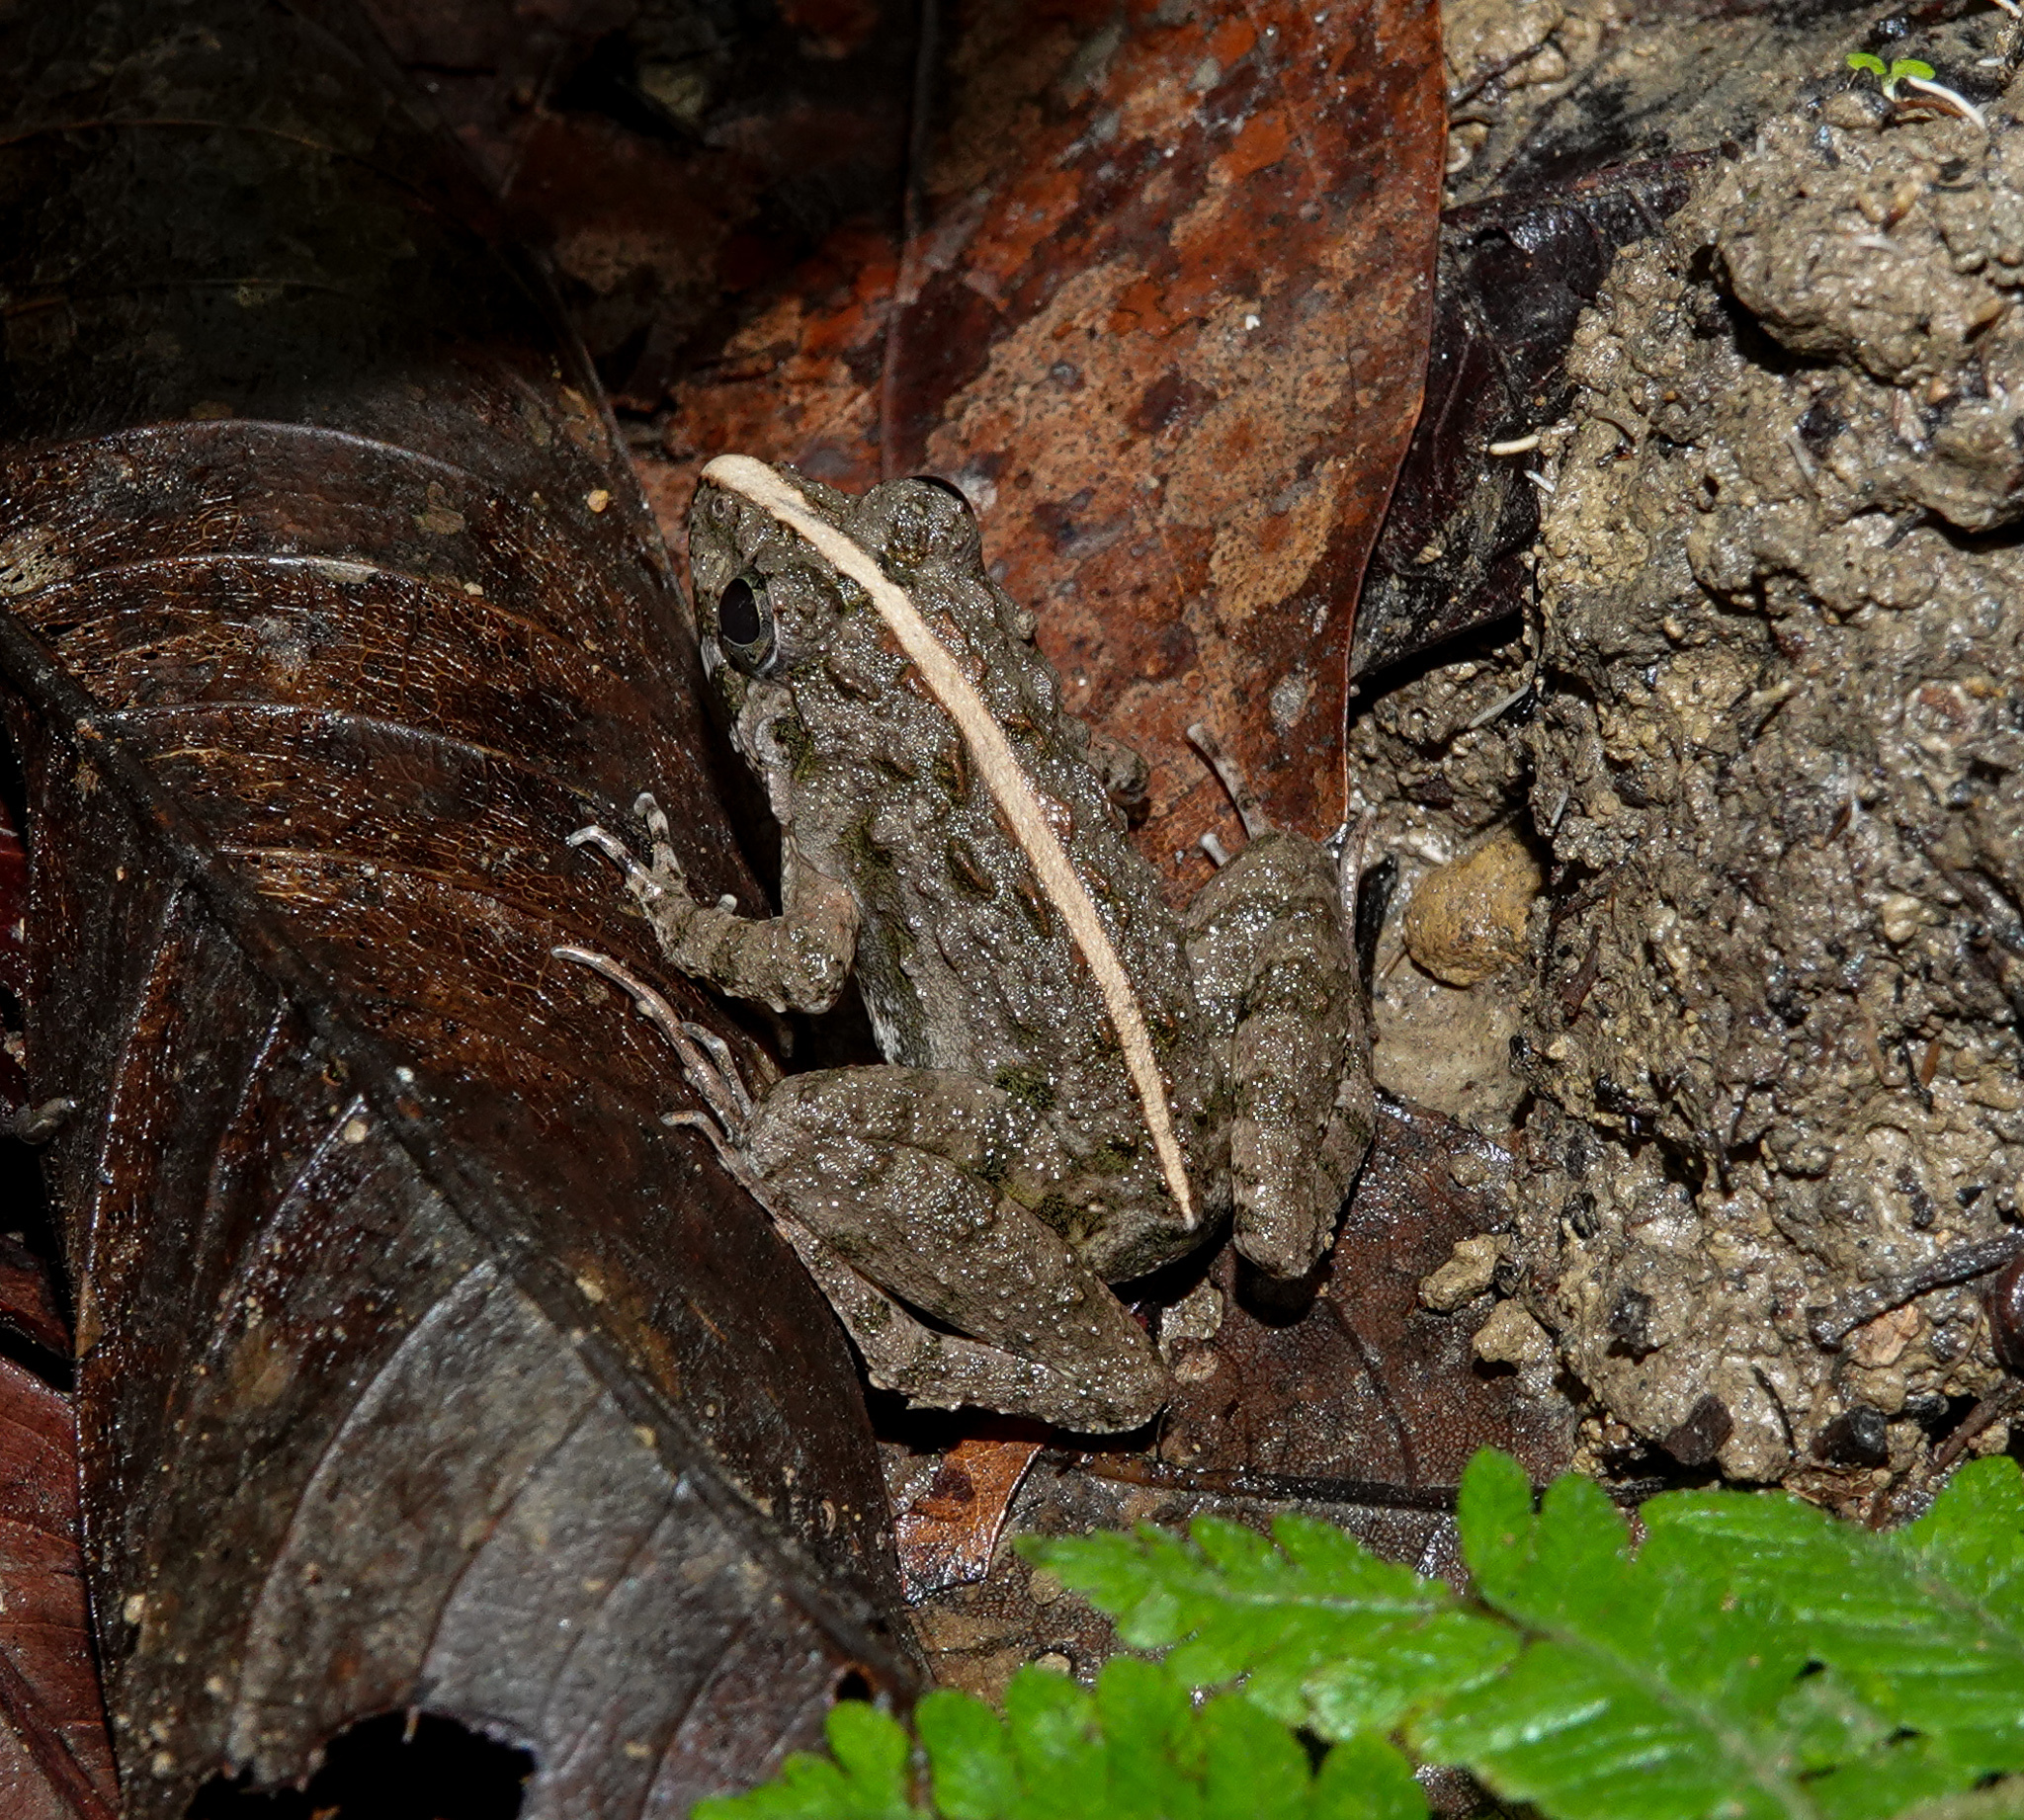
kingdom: Animalia
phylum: Chordata
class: Amphibia
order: Anura
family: Dicroglossidae
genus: Fejervarya
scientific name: Fejervarya limnocharis
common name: Asian grass frog/common pond frog/field frog/grass frog/indian rice frog
